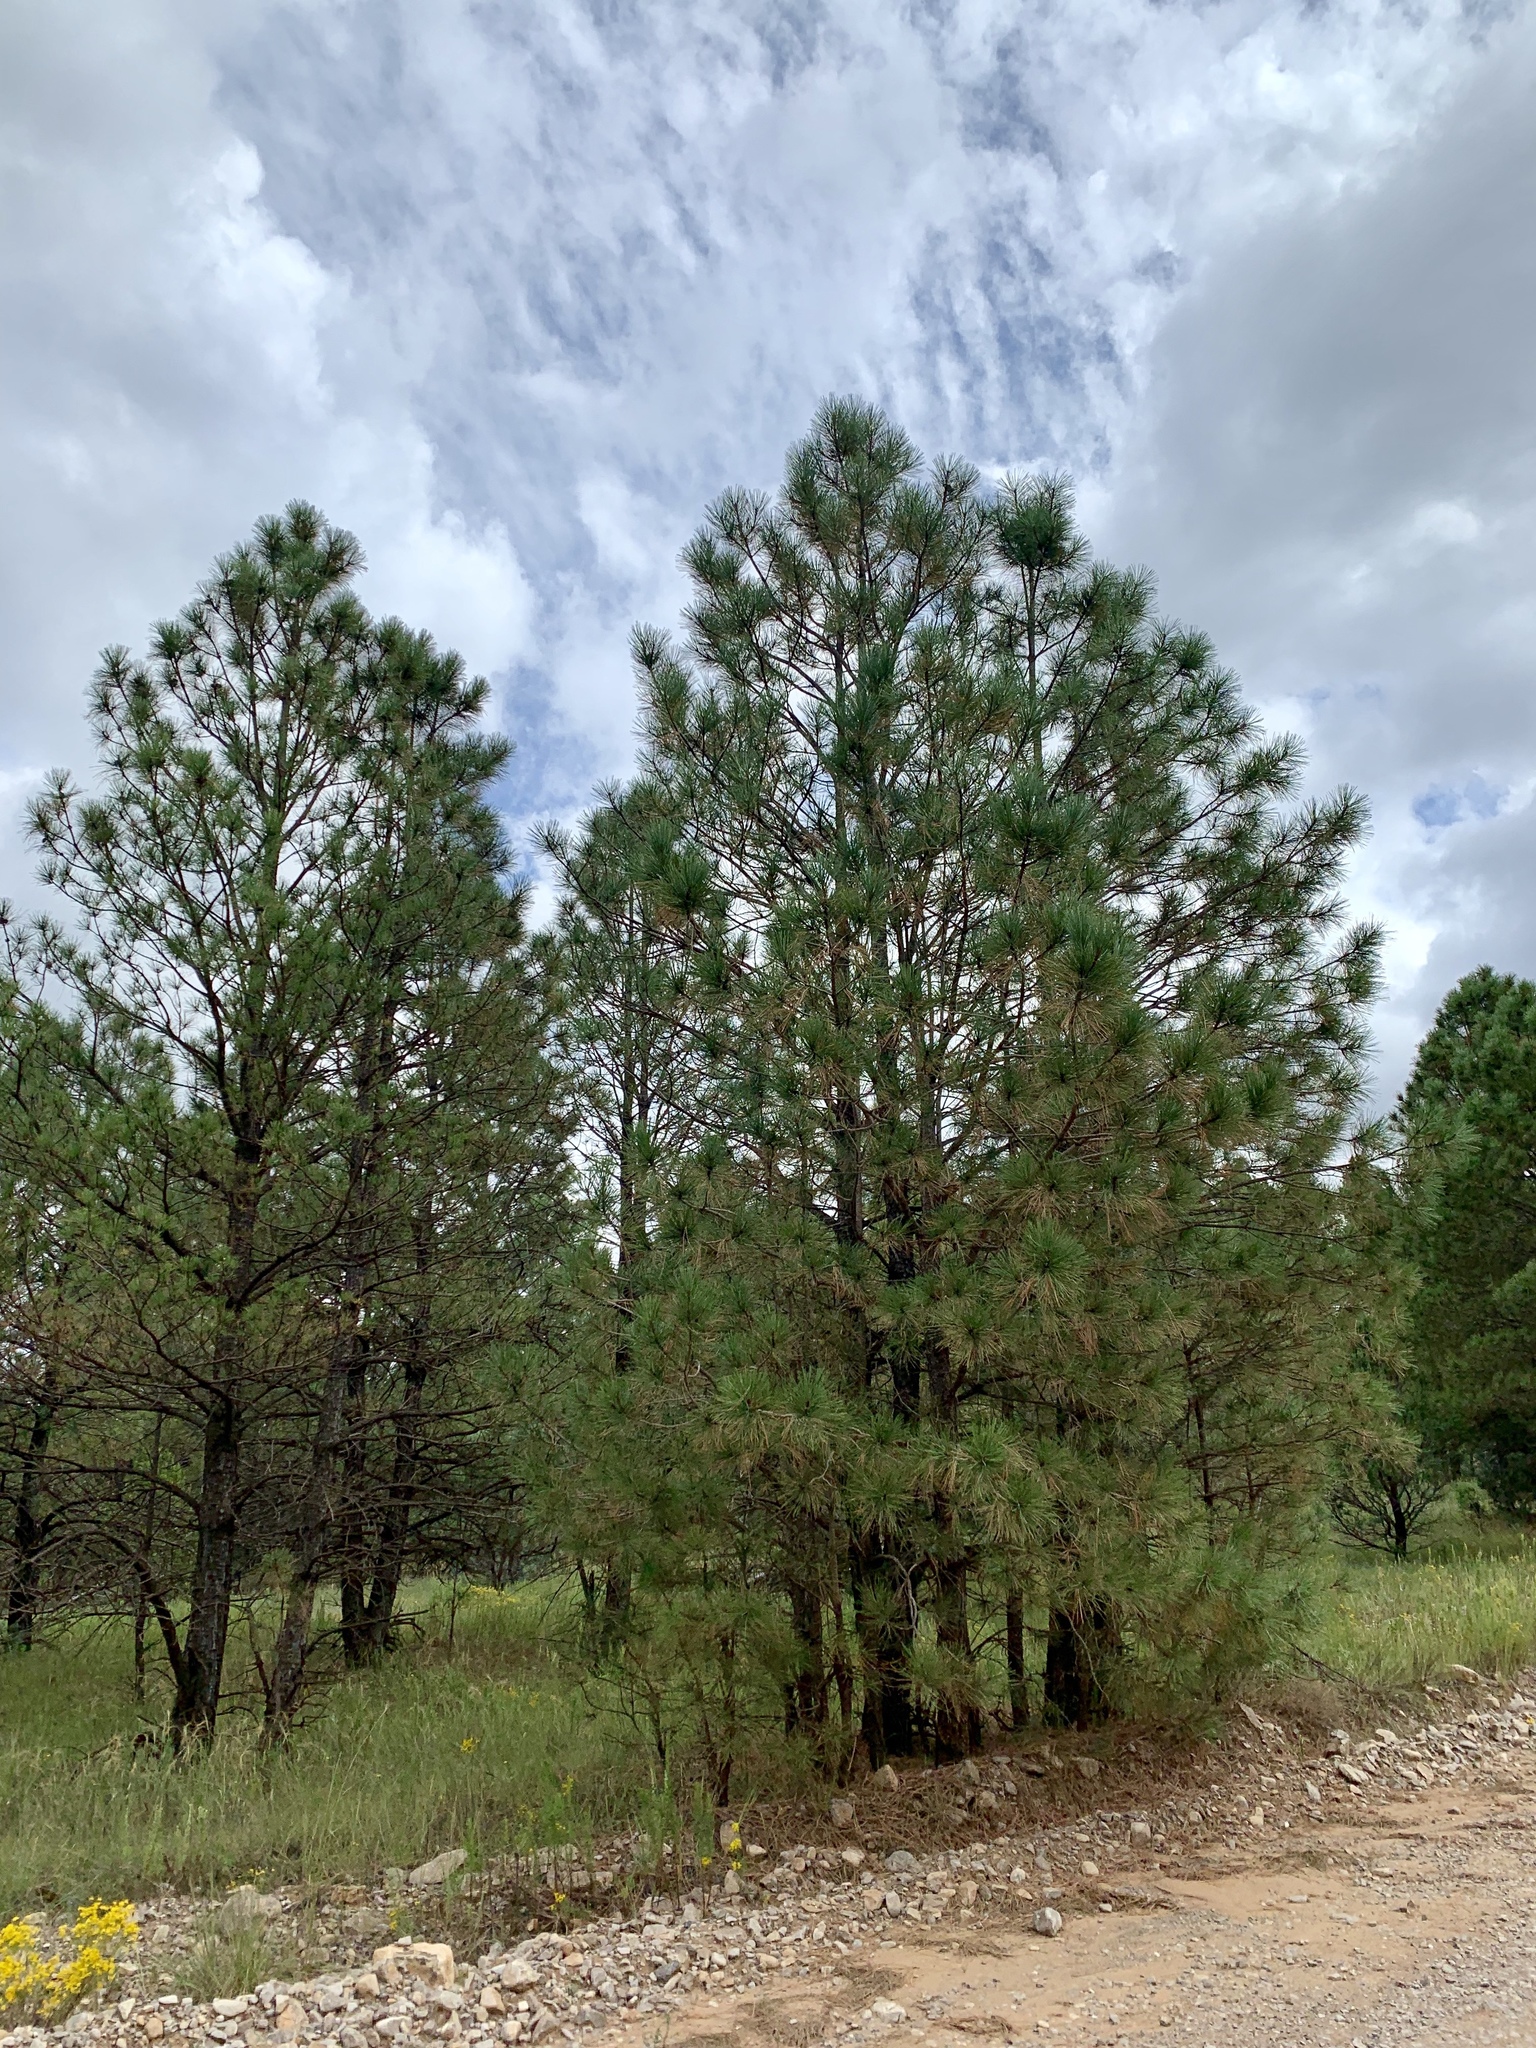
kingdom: Plantae
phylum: Tracheophyta
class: Pinopsida
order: Pinales
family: Pinaceae
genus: Pinus
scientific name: Pinus ponderosa
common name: Western yellow-pine
